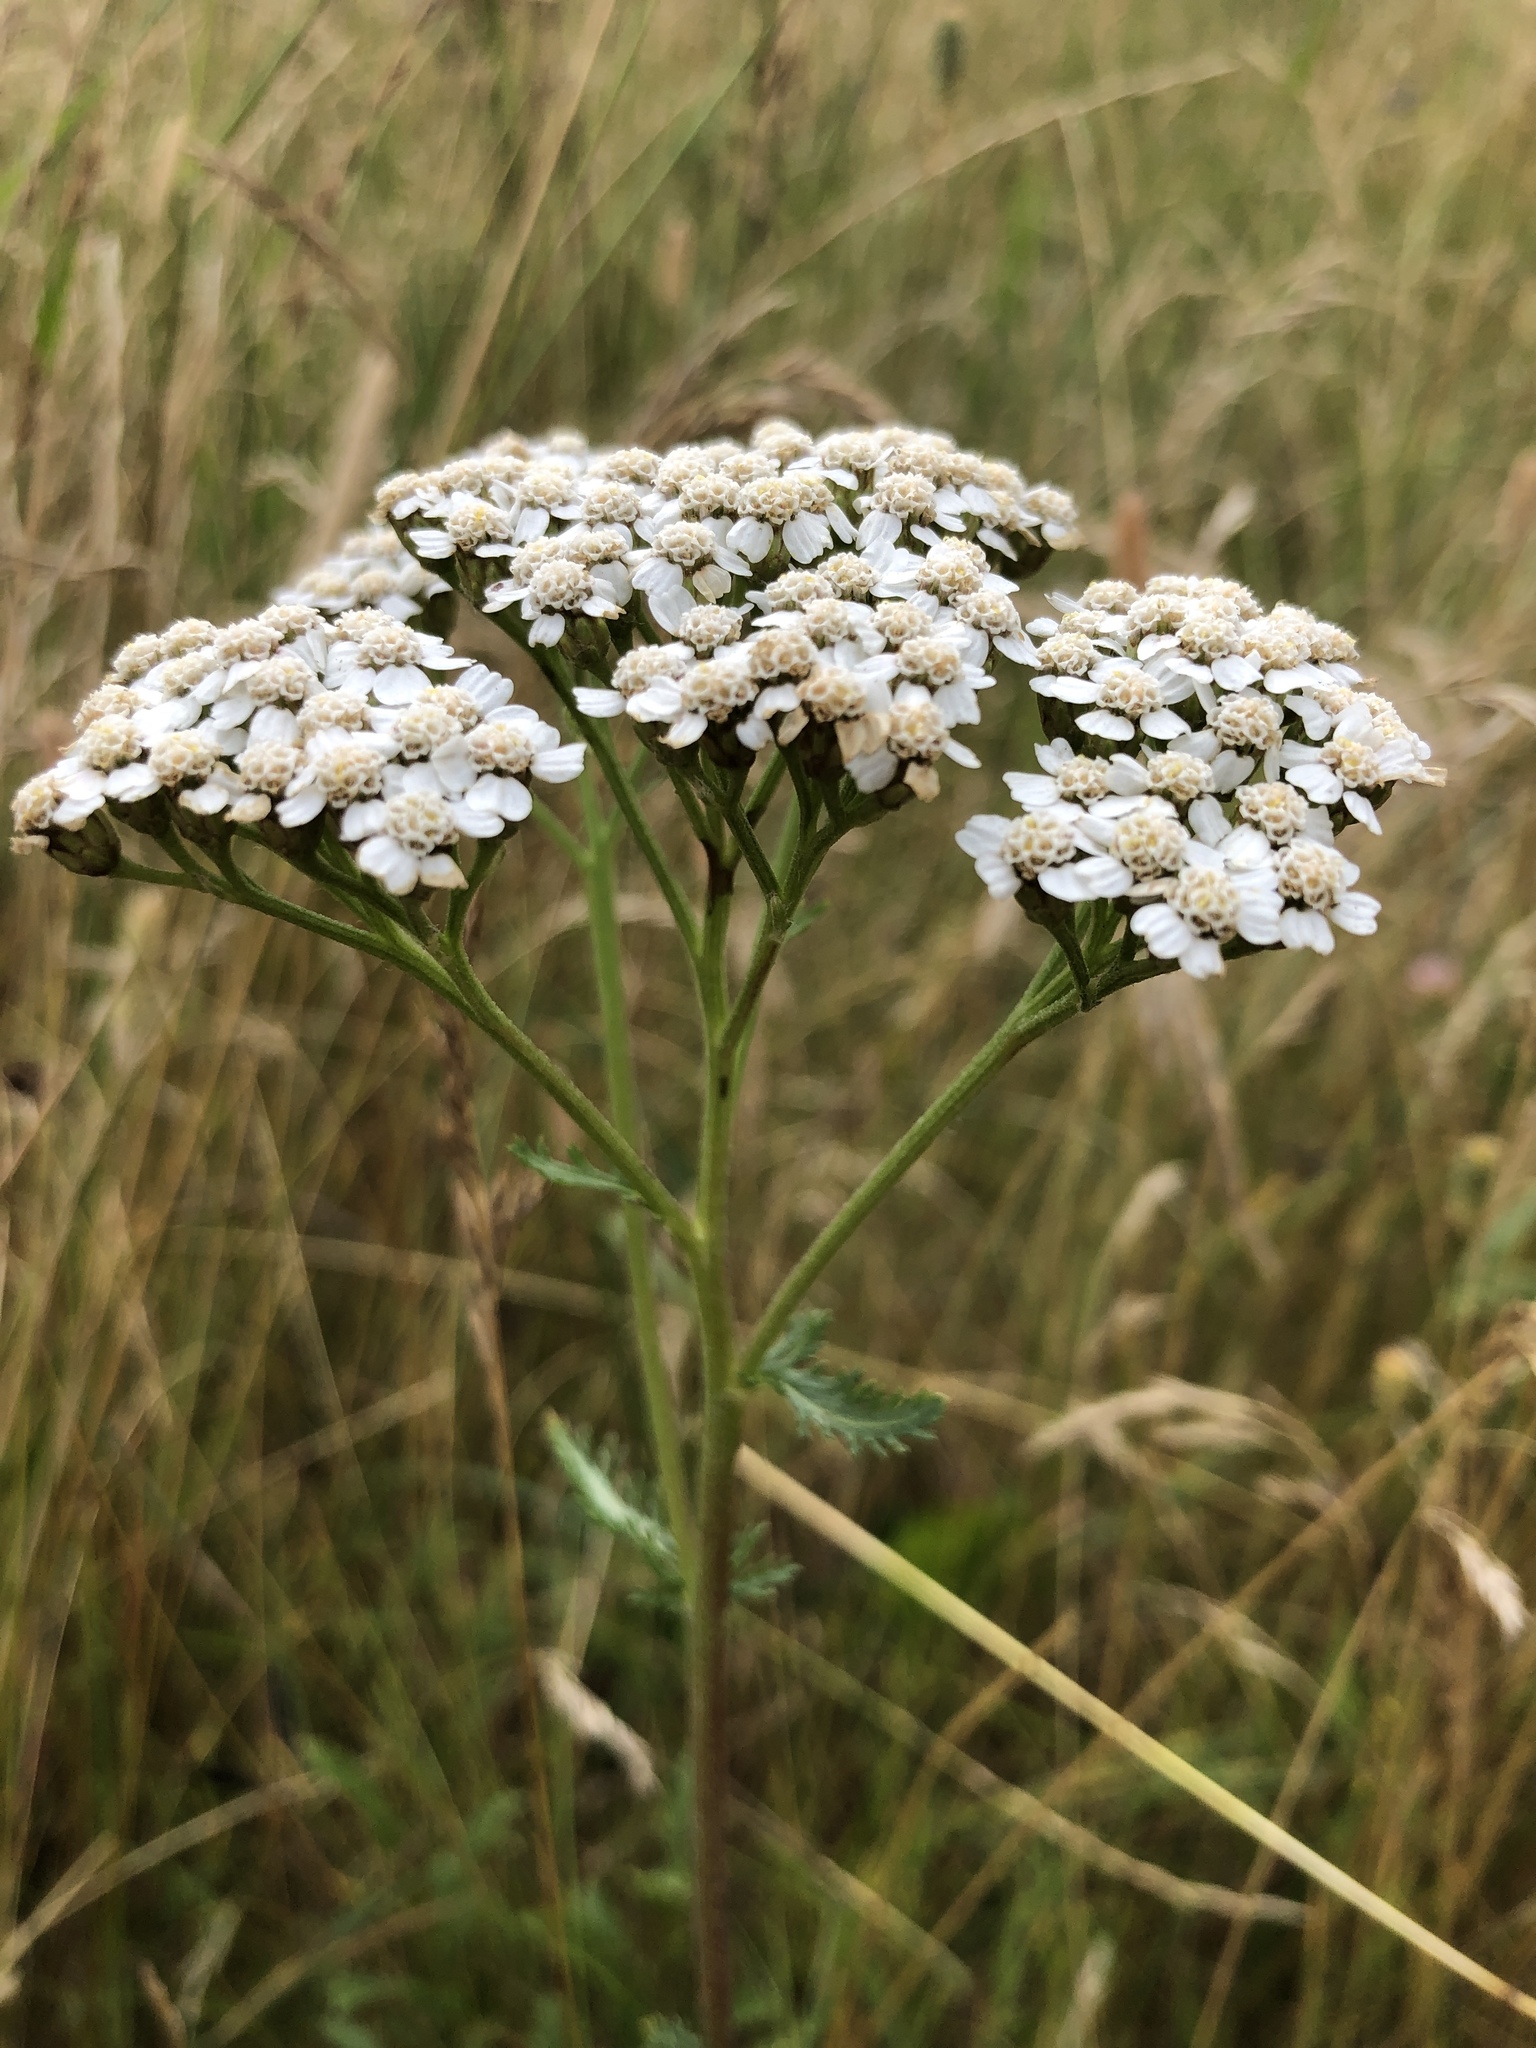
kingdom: Plantae
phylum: Tracheophyta
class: Magnoliopsida
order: Asterales
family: Asteraceae
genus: Achillea
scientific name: Achillea millefolium
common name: Yarrow
